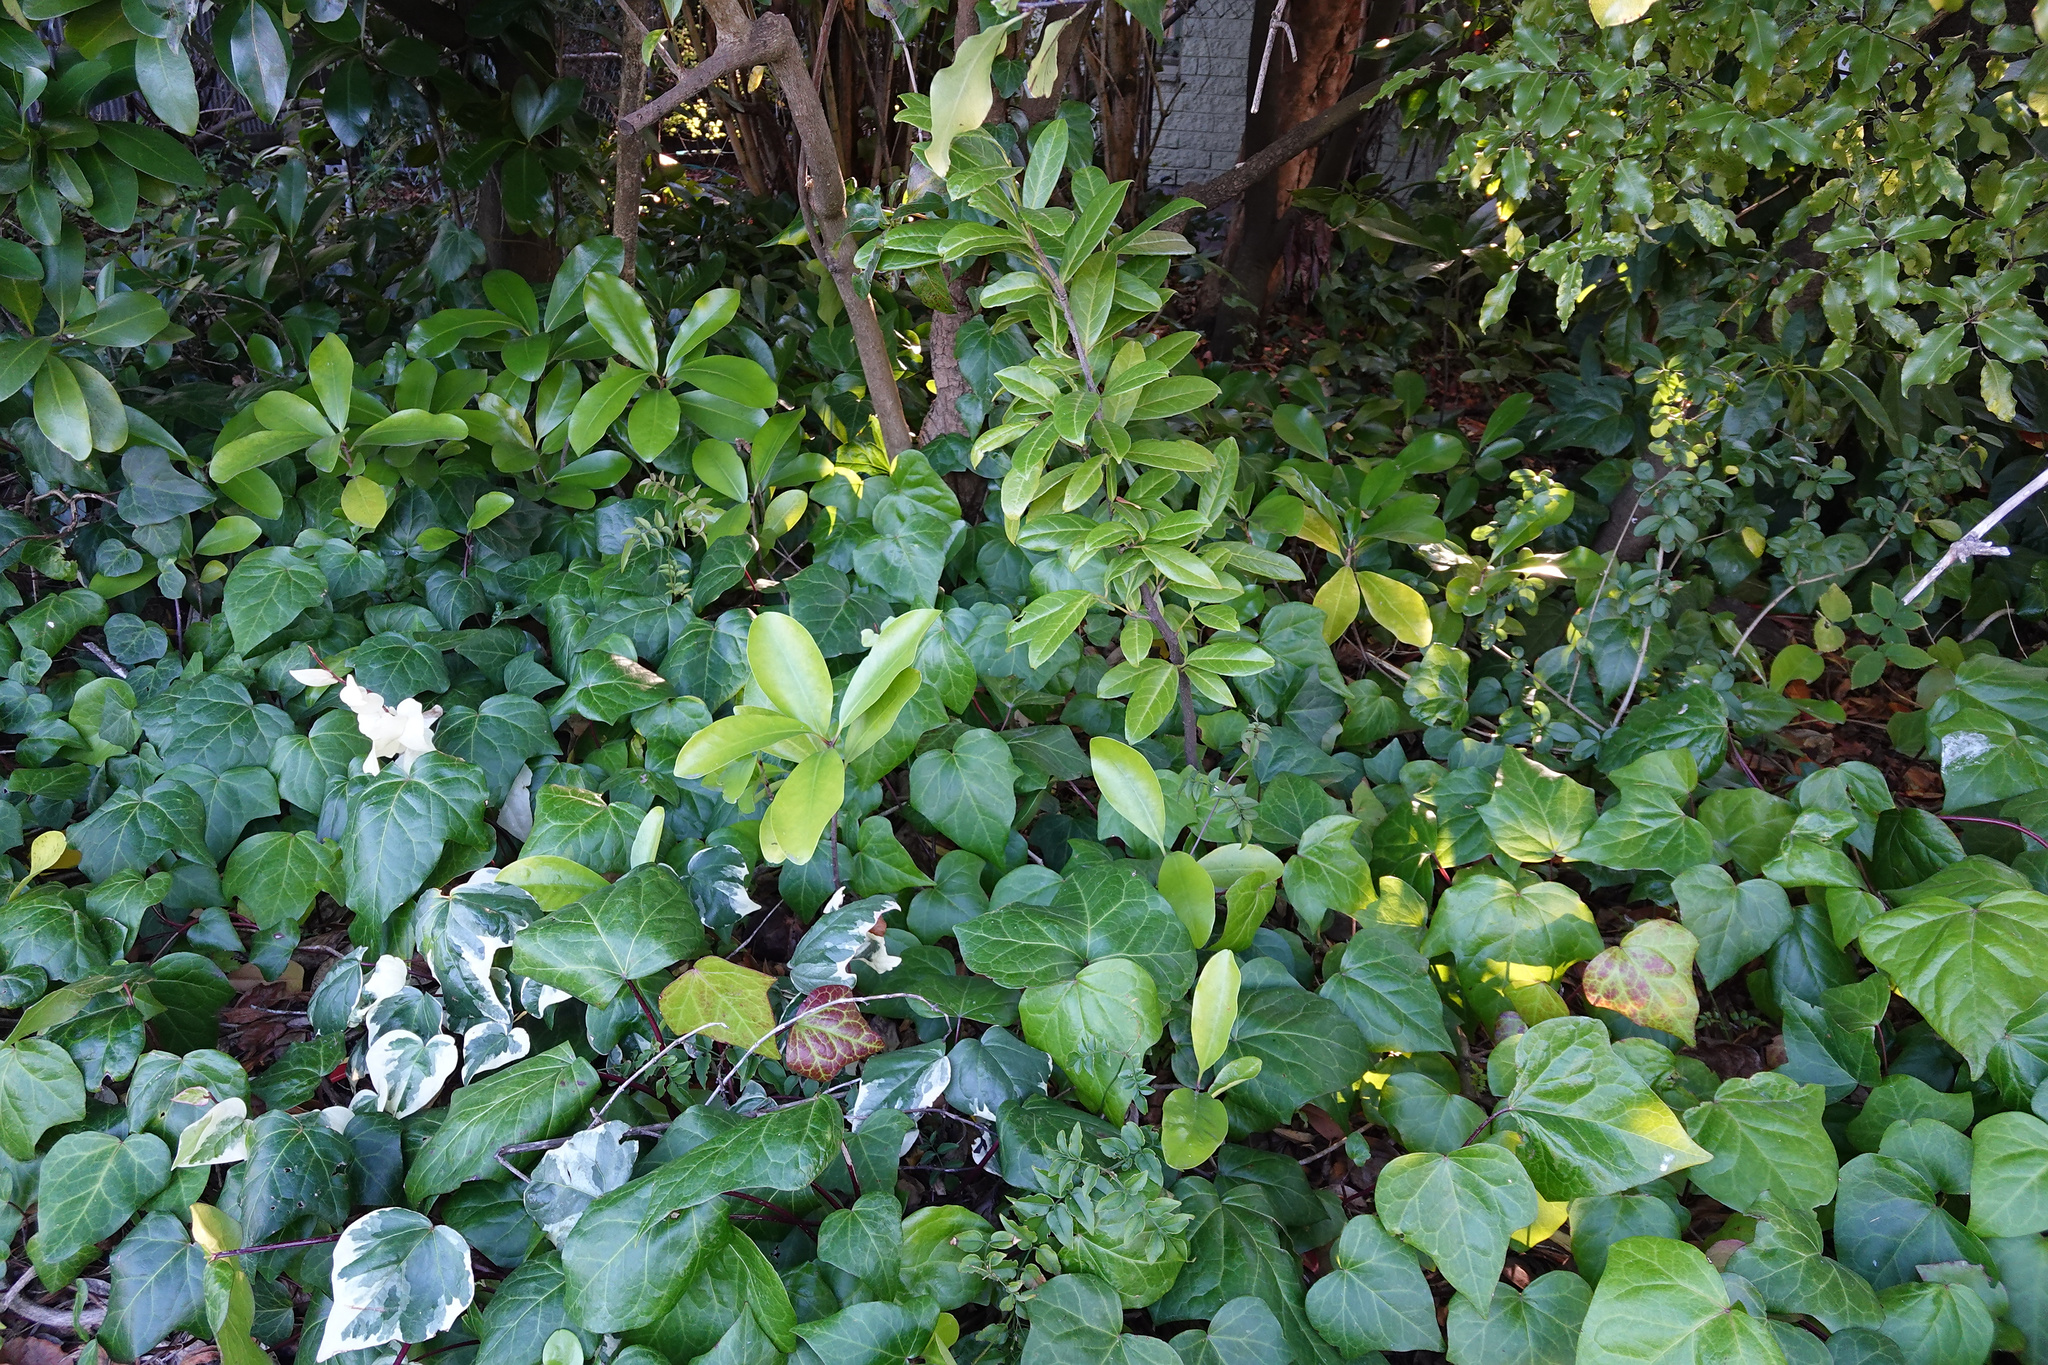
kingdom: Plantae
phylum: Tracheophyta
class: Magnoliopsida
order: Rosales
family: Rosaceae
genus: Prunus
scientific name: Prunus laurocerasus
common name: Cherry laurel
